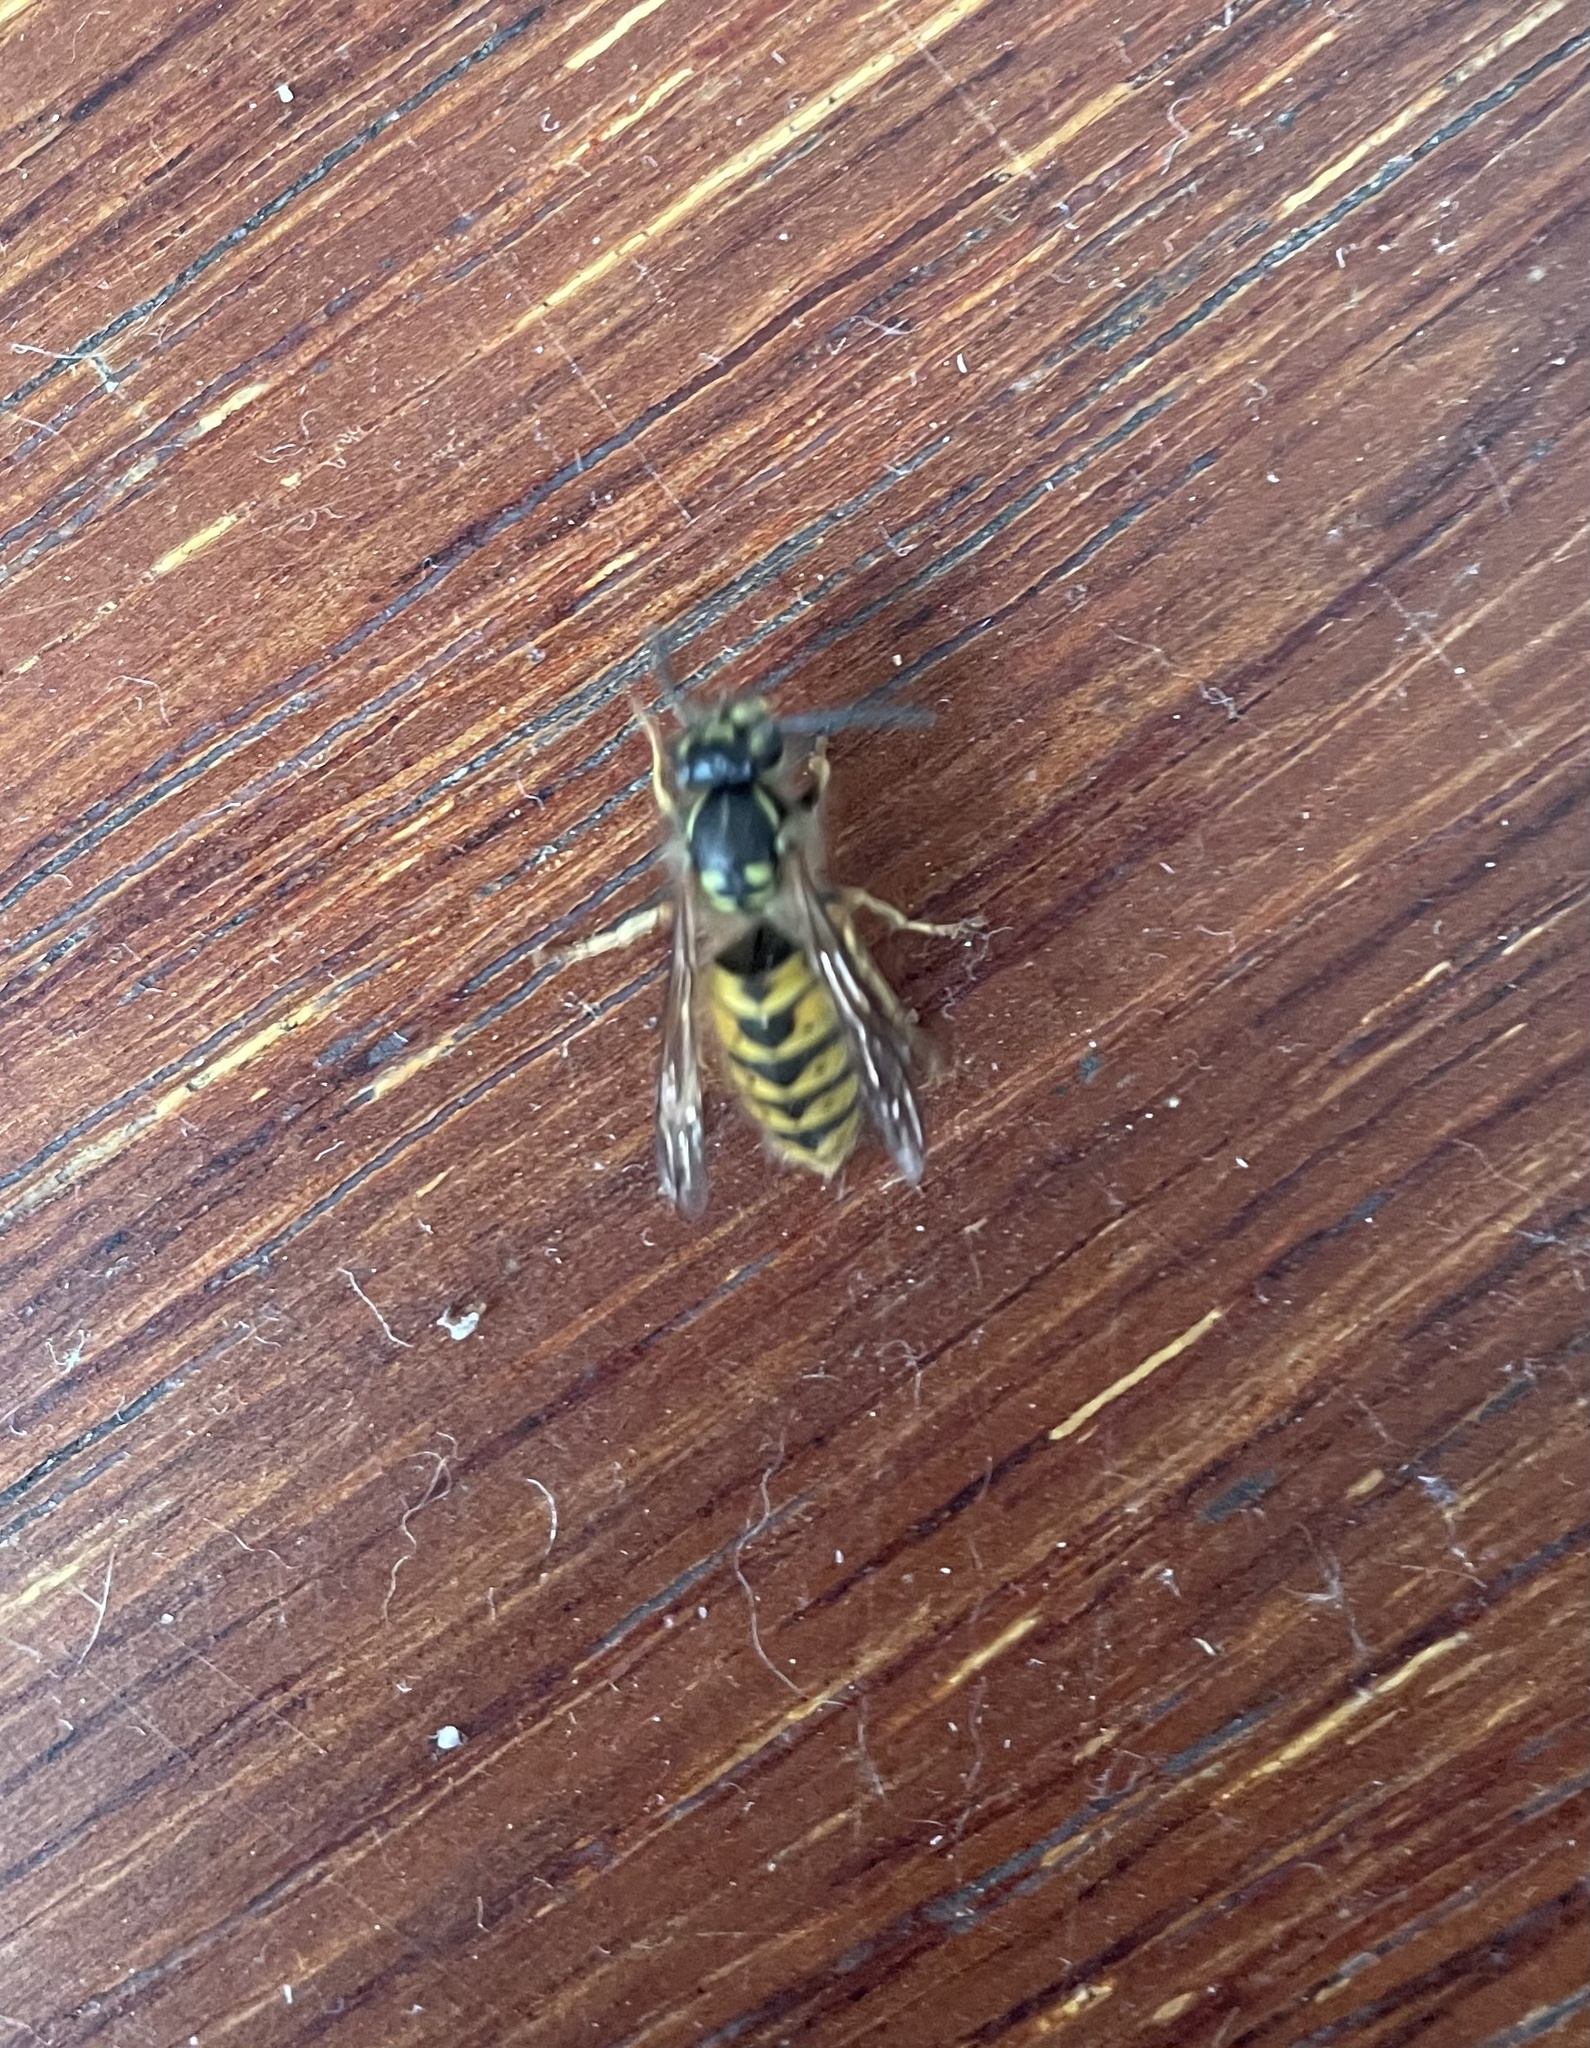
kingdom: Animalia
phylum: Arthropoda
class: Insecta
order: Hymenoptera
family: Vespidae
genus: Vespula
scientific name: Vespula vulgaris
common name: Common wasp
